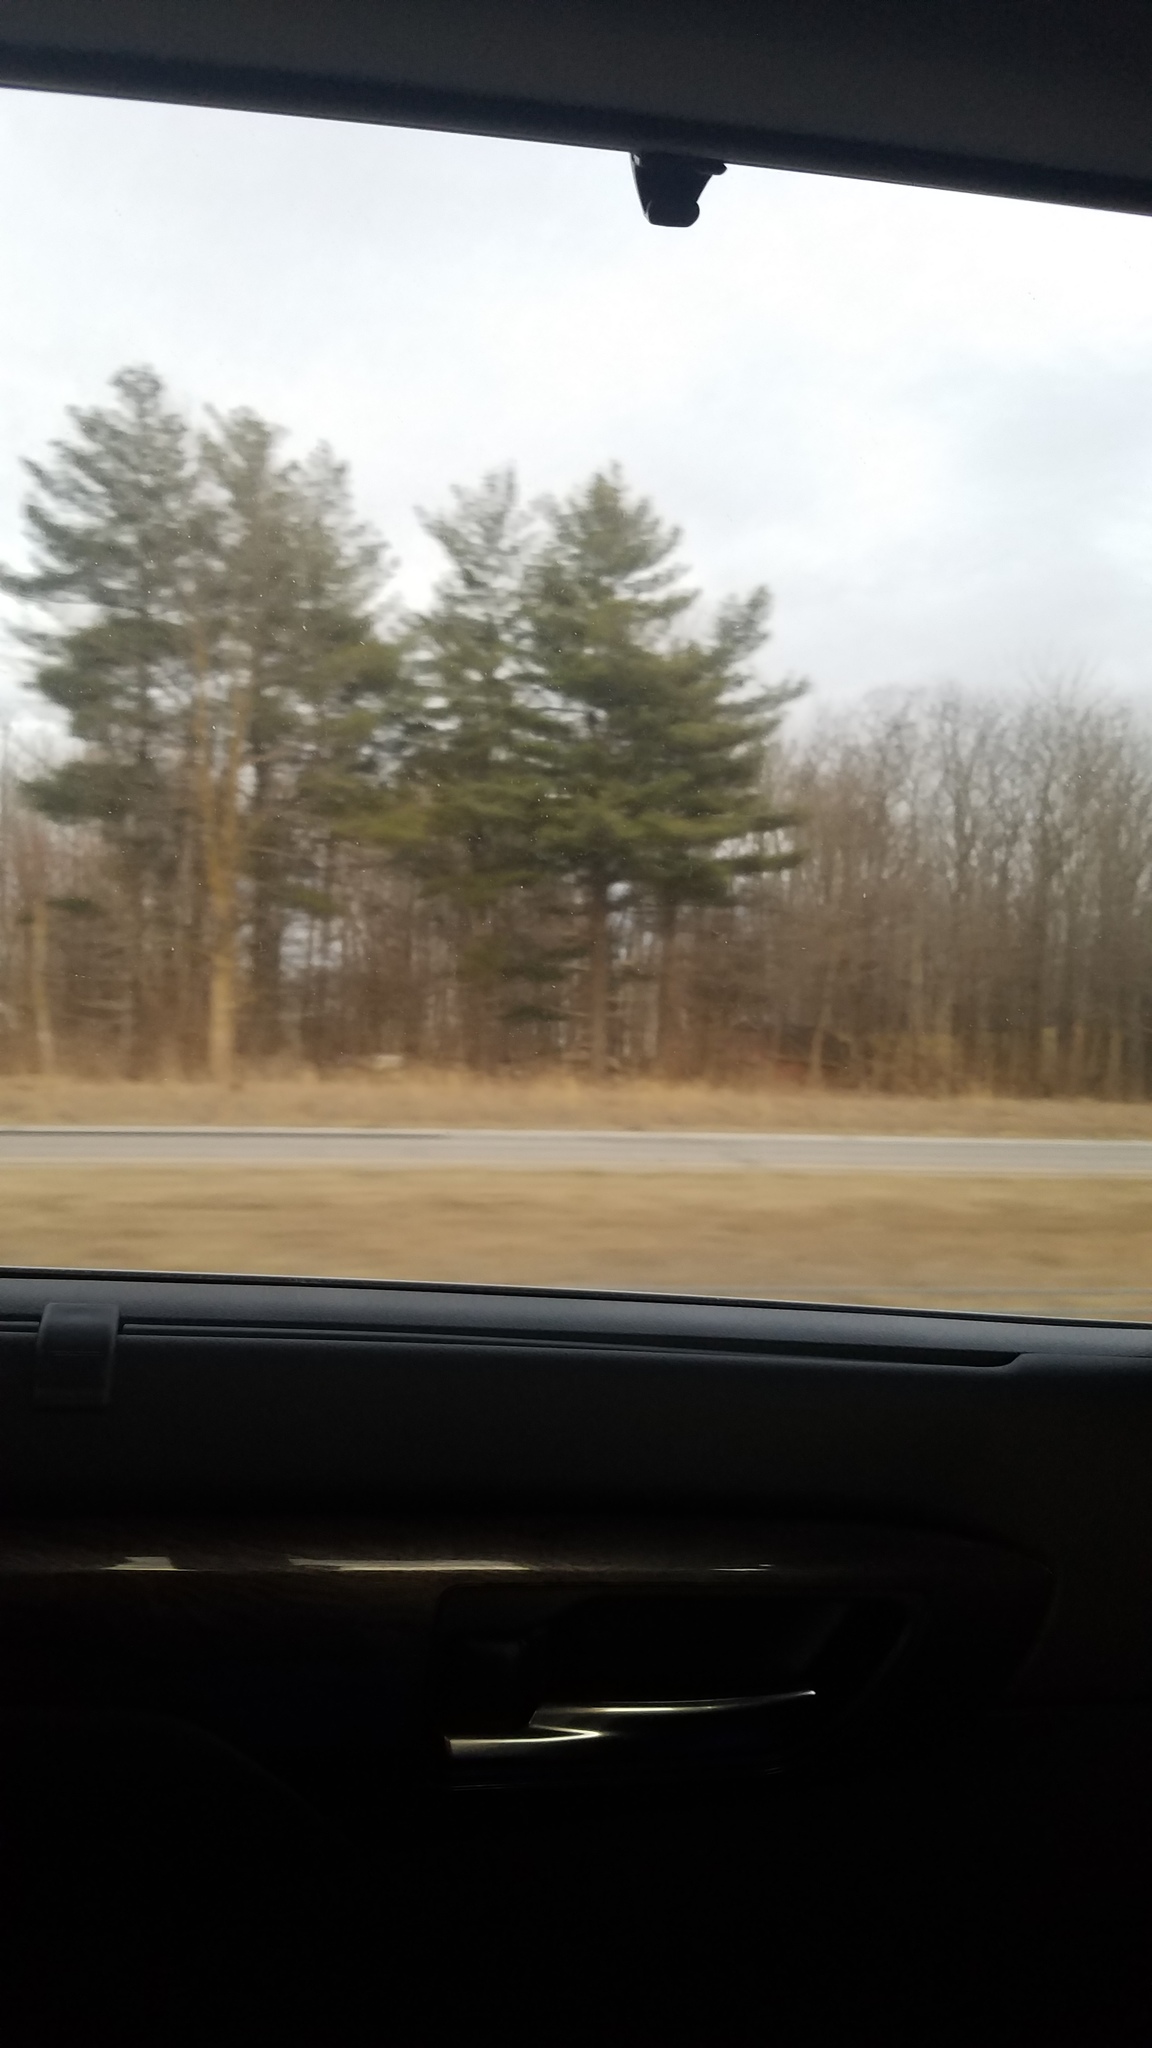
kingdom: Plantae
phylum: Tracheophyta
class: Pinopsida
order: Pinales
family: Pinaceae
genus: Pinus
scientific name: Pinus strobus
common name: Weymouth pine
